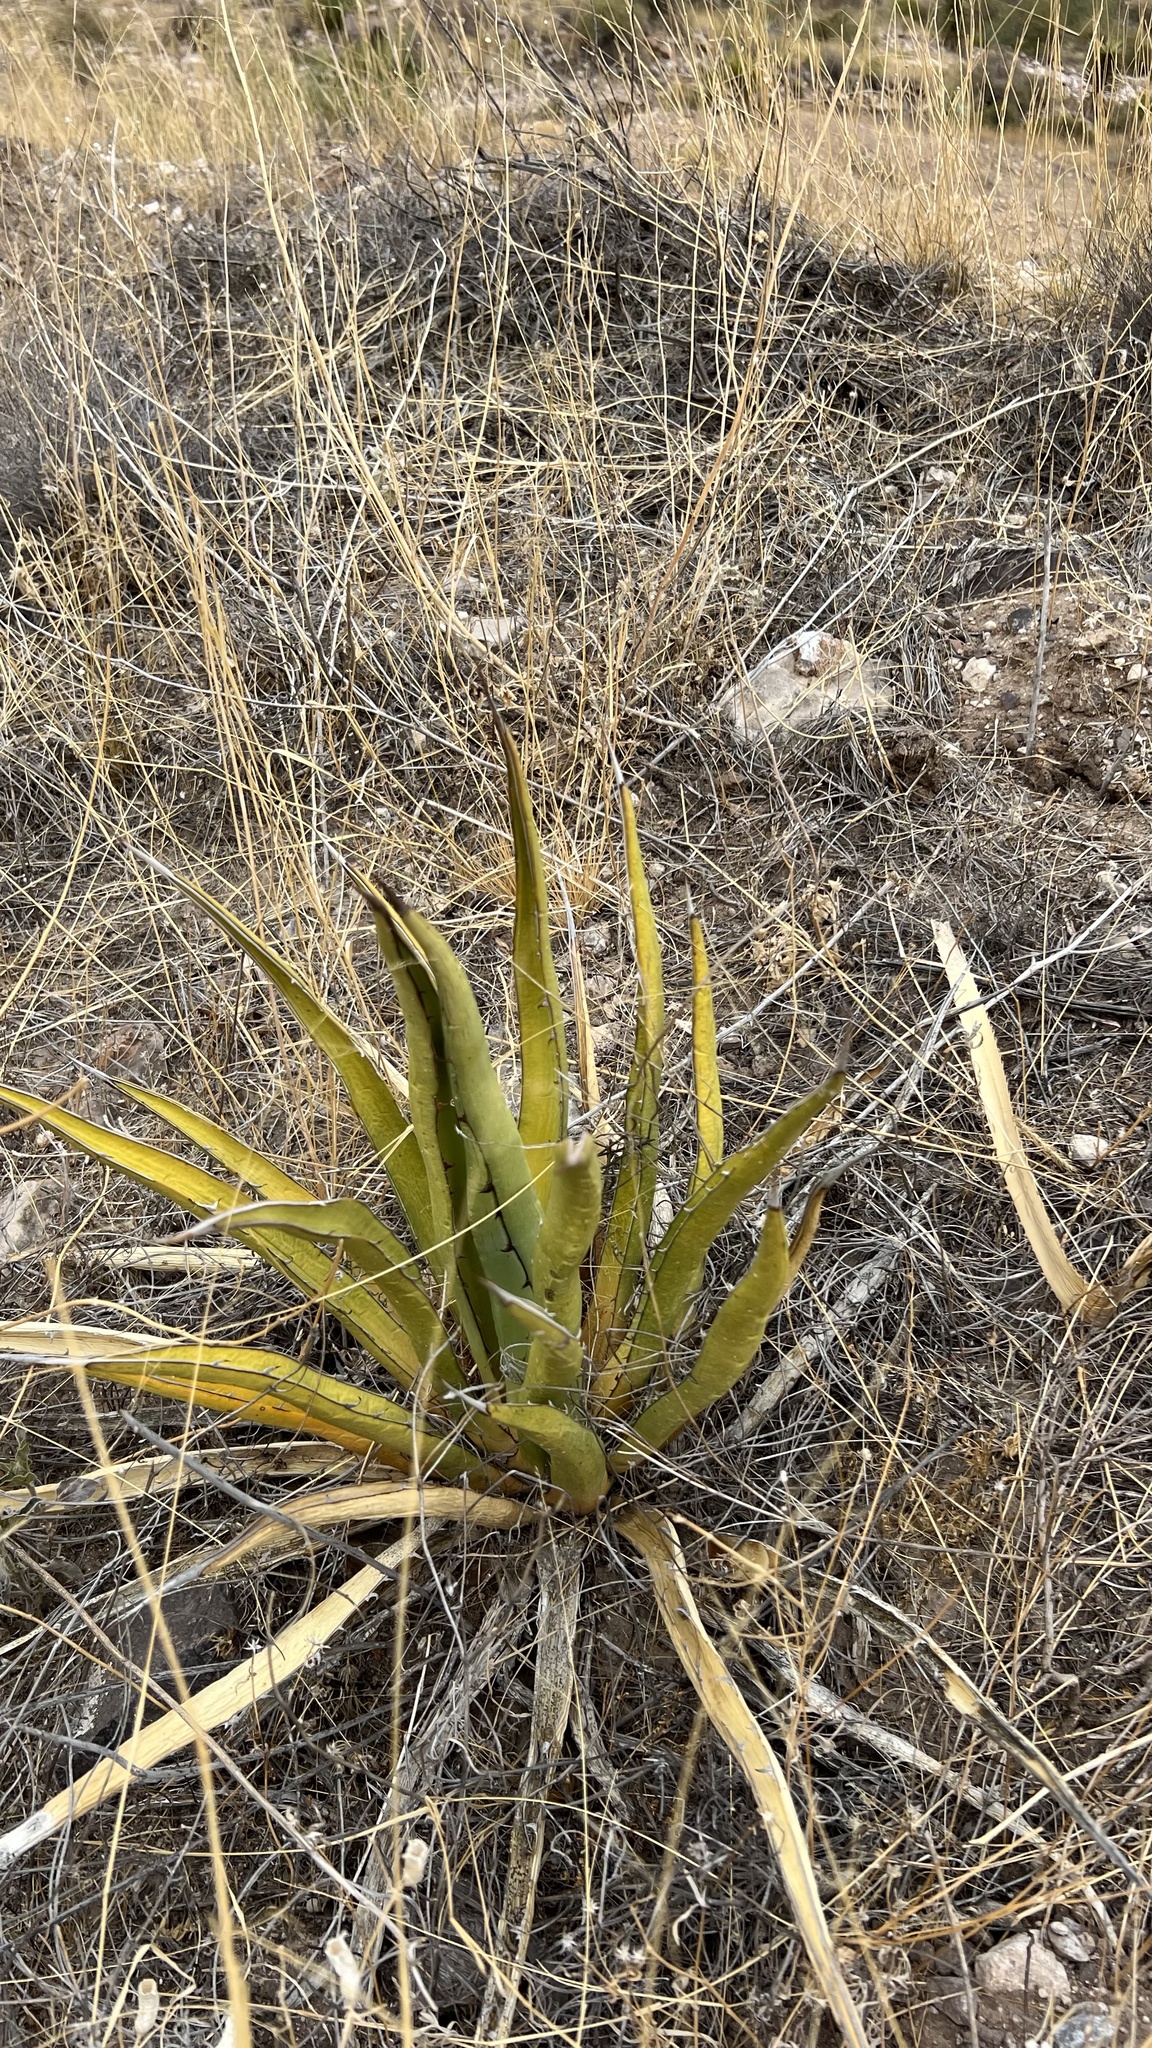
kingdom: Plantae
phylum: Tracheophyta
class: Liliopsida
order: Asparagales
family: Asparagaceae
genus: Agave
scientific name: Agave lechuguilla
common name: Lecheguilla agave
